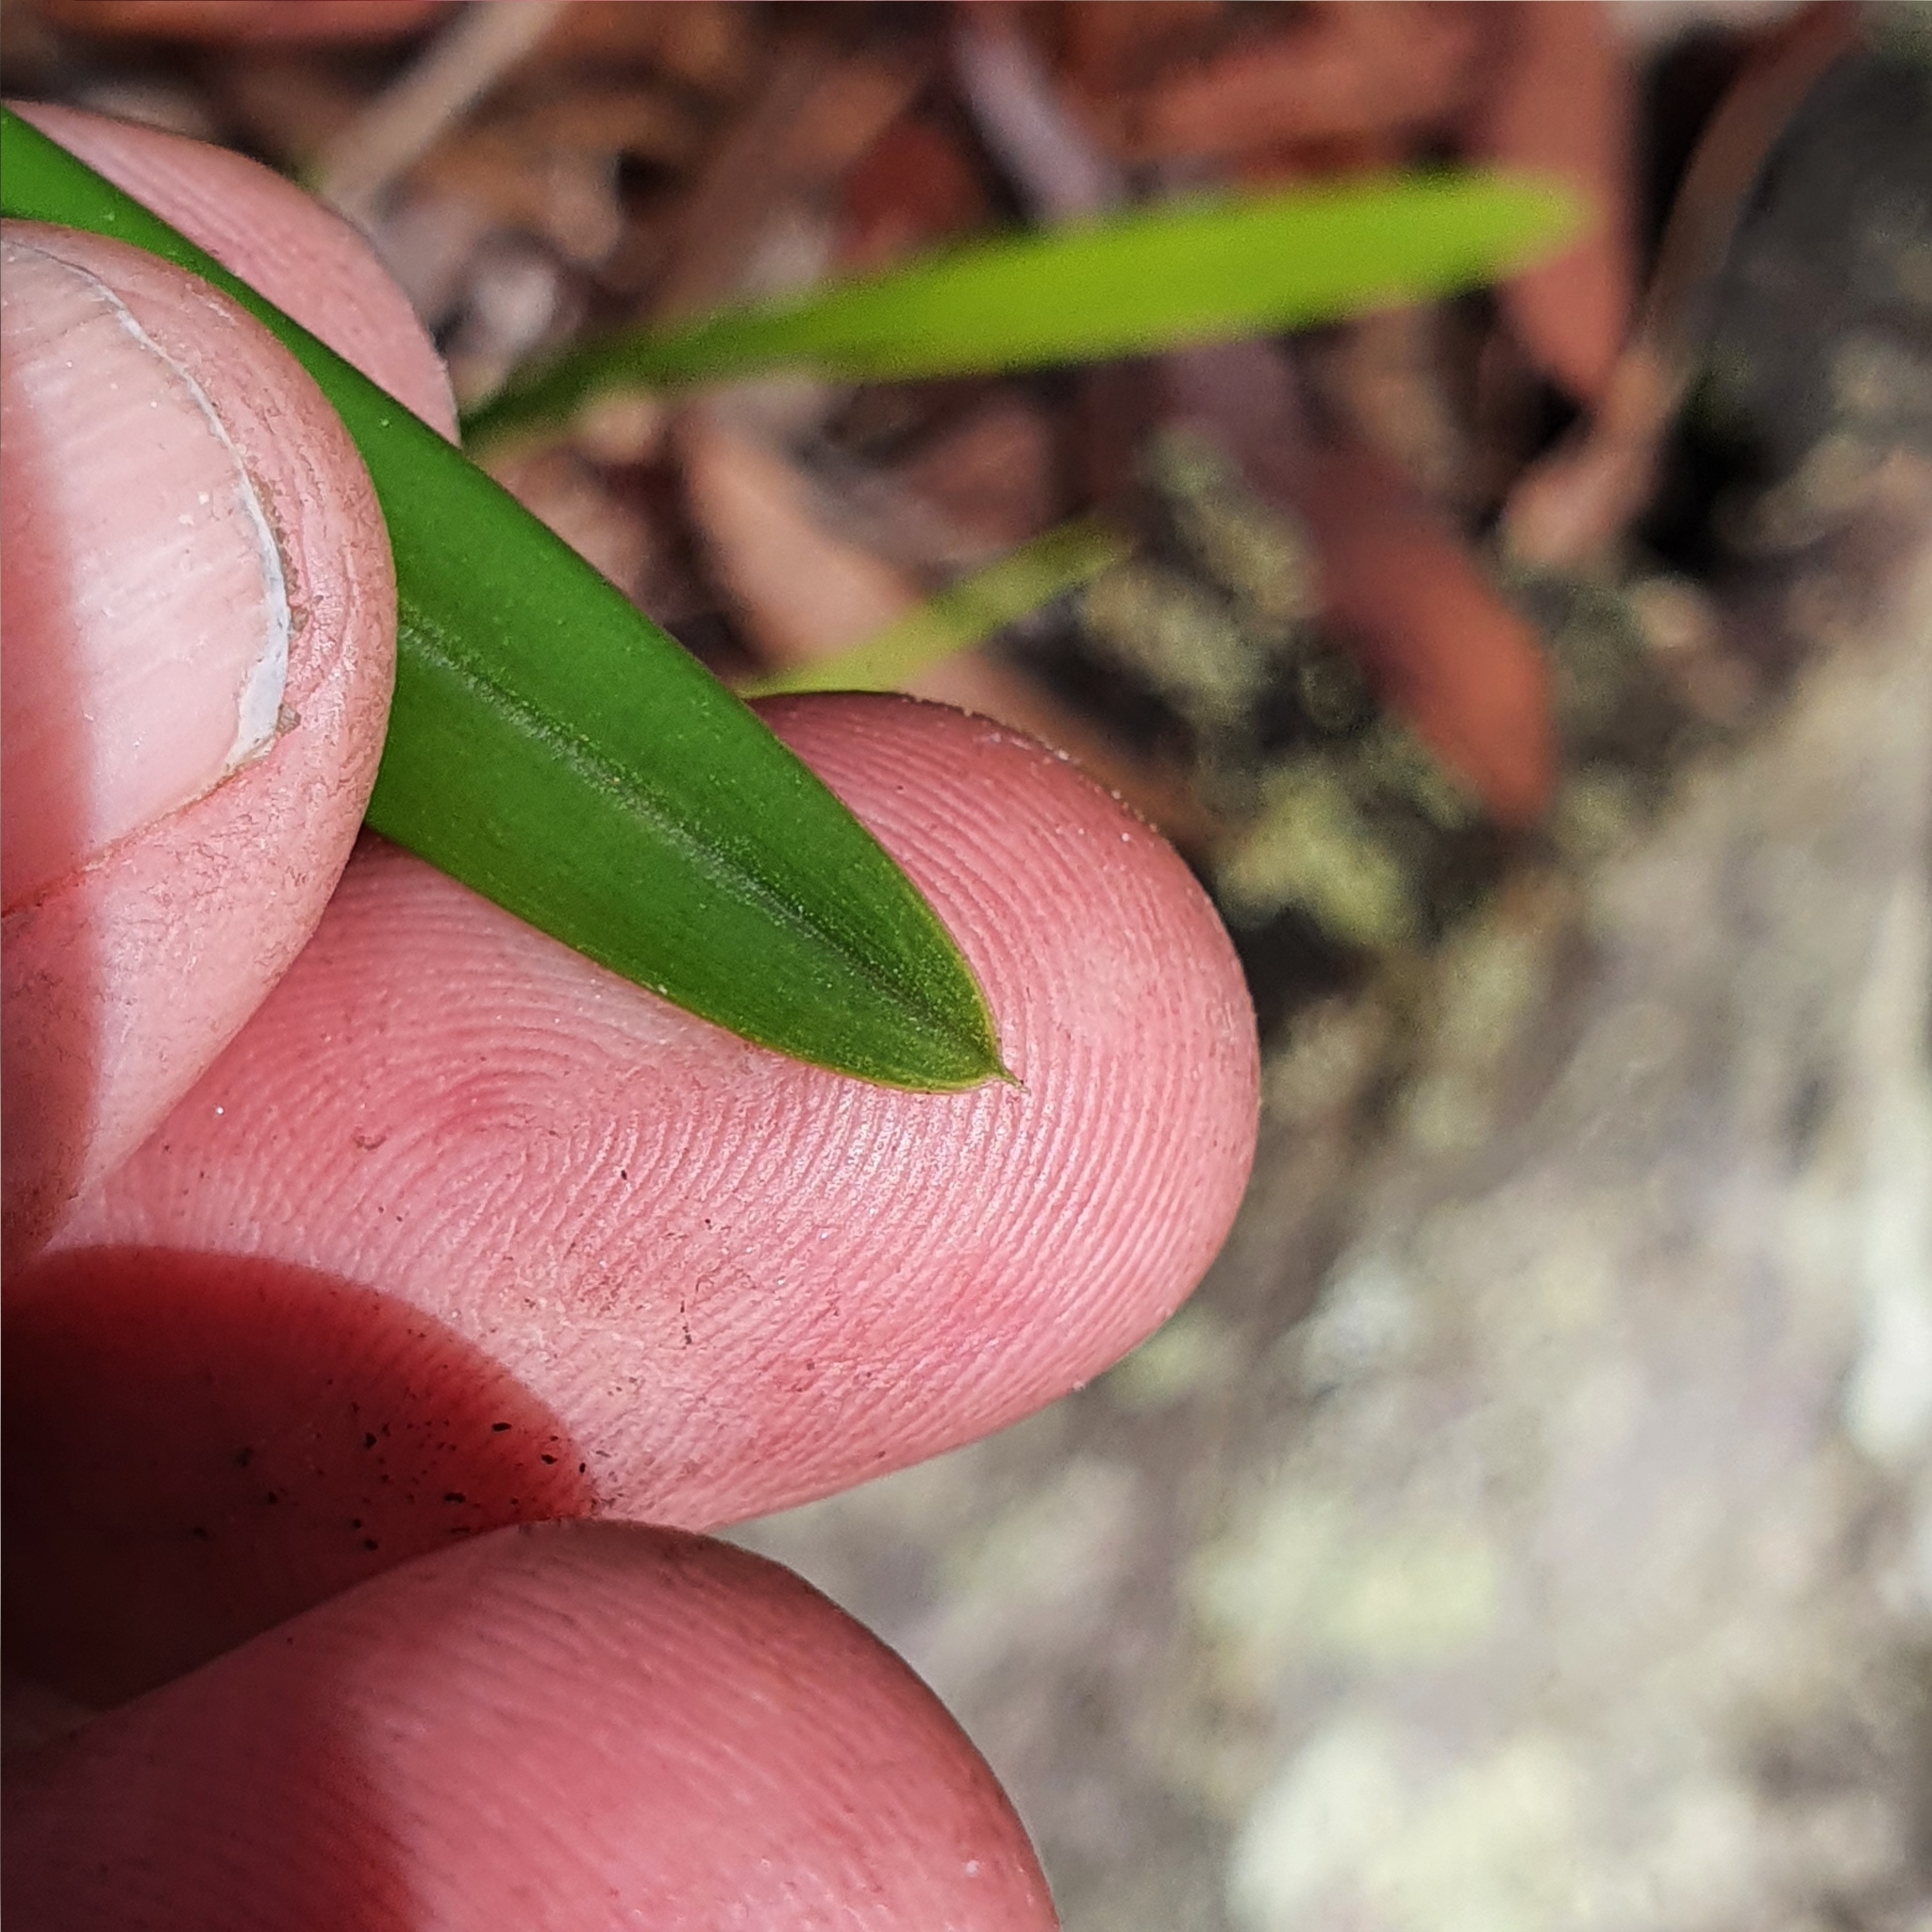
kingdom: Plantae
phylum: Tracheophyta
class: Liliopsida
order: Asparagales
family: Orchidaceae
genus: Cymbidium
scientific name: Cymbidium suave
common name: Snake orchid
